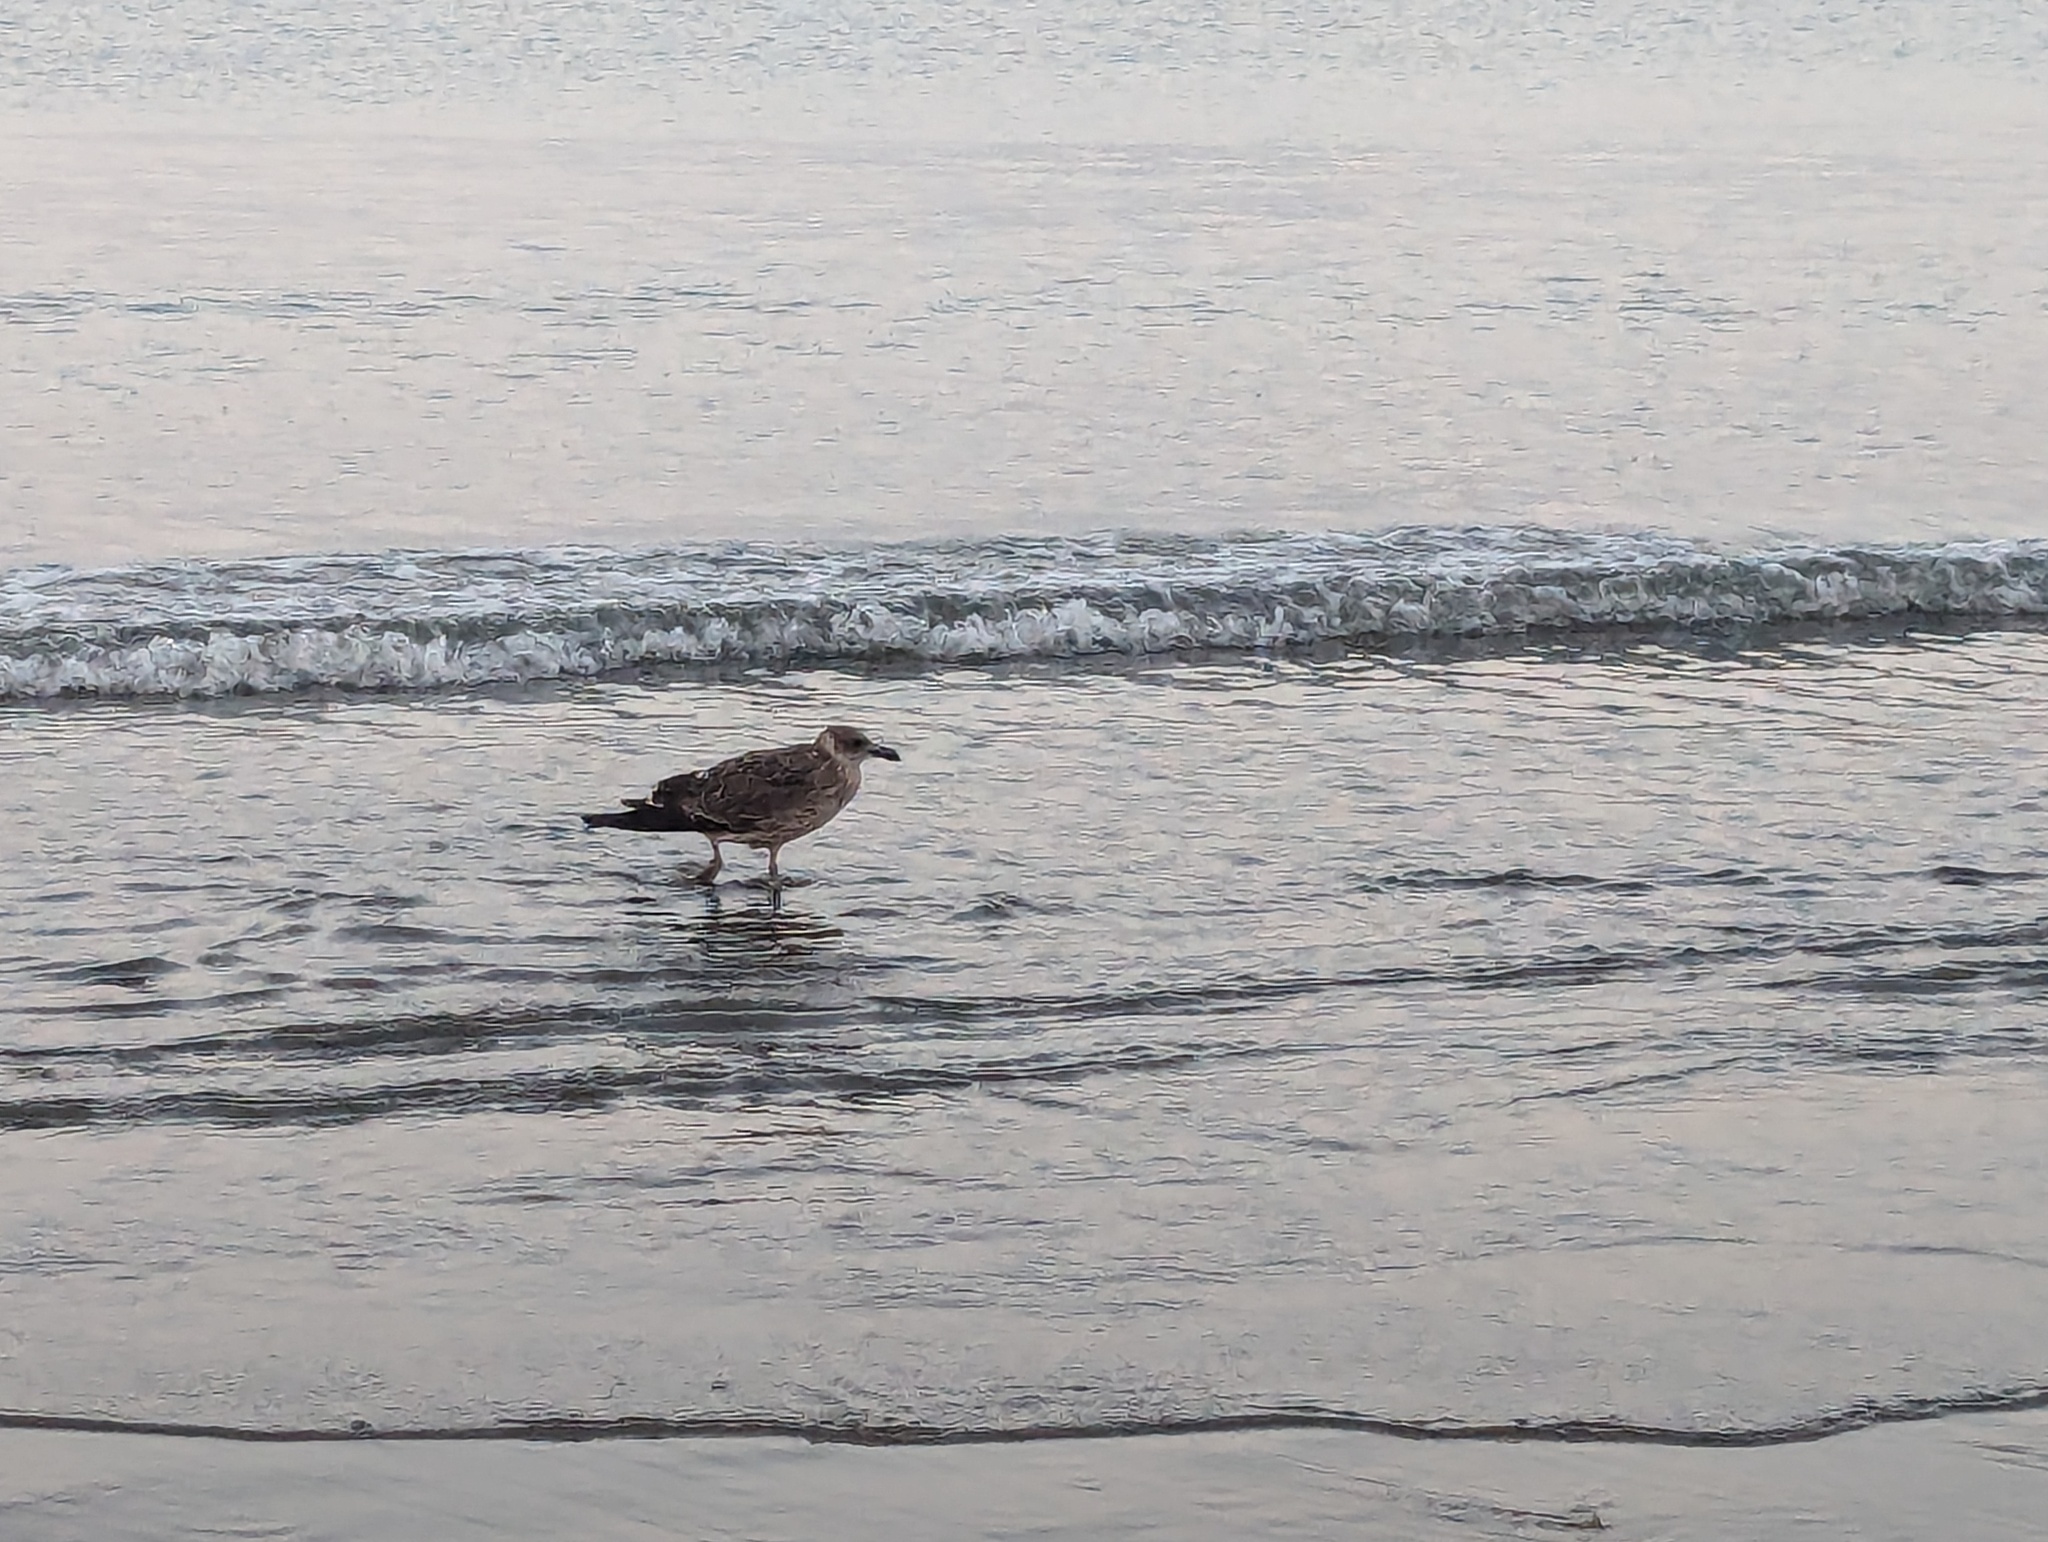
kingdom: Animalia
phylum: Chordata
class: Aves
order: Charadriiformes
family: Laridae
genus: Larus
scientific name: Larus dominicanus
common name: Kelp gull
